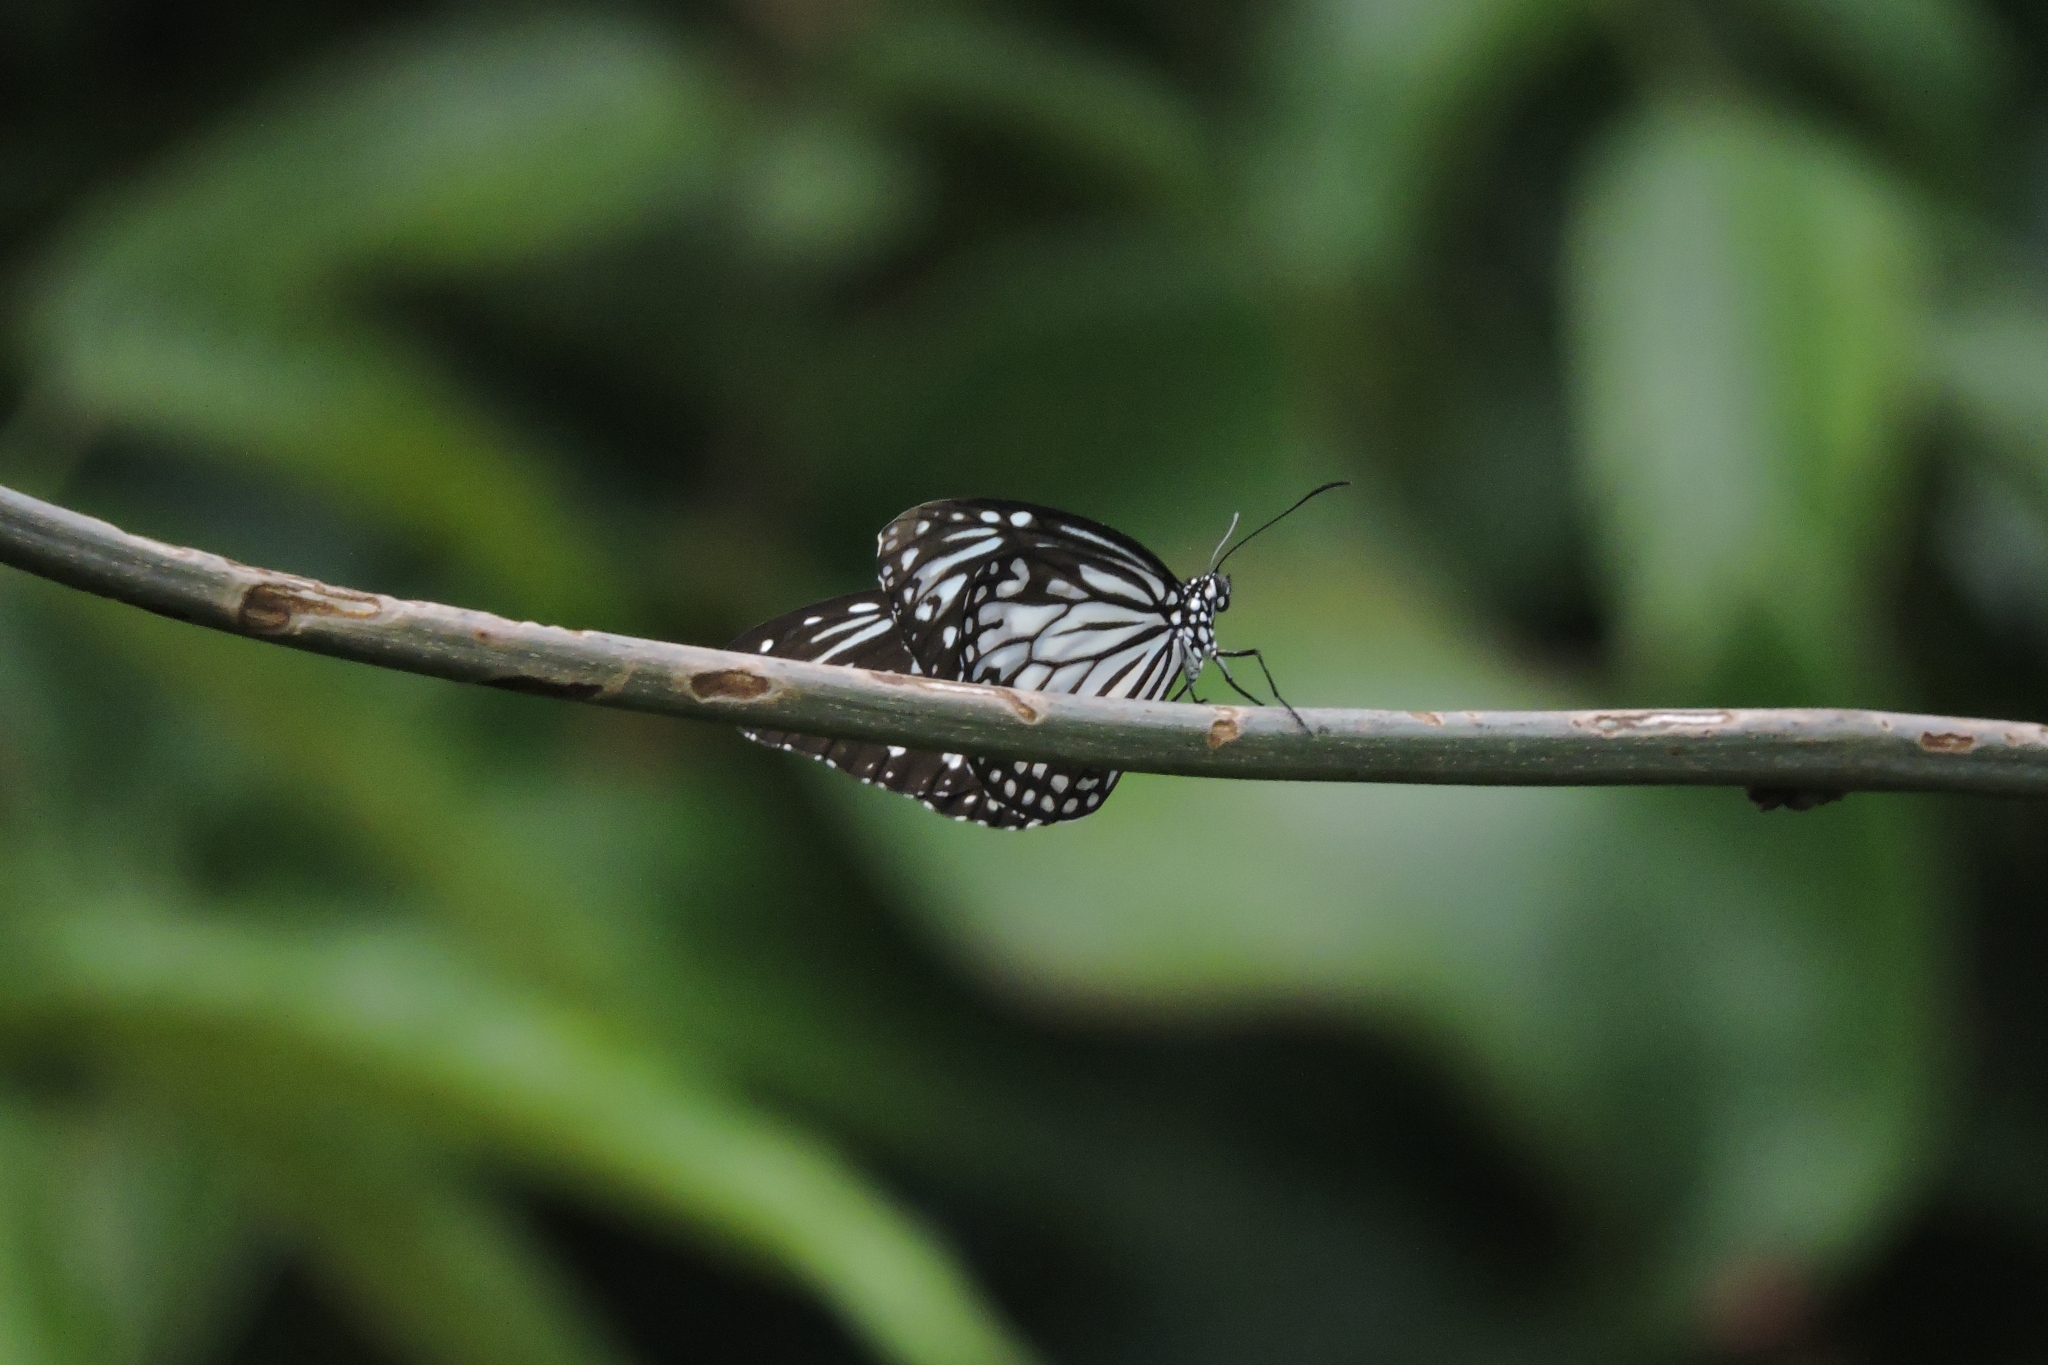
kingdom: Animalia
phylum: Arthropoda
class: Insecta
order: Lepidoptera
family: Nymphalidae
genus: Parantica
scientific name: Parantica aglea
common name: Glassy tiger
